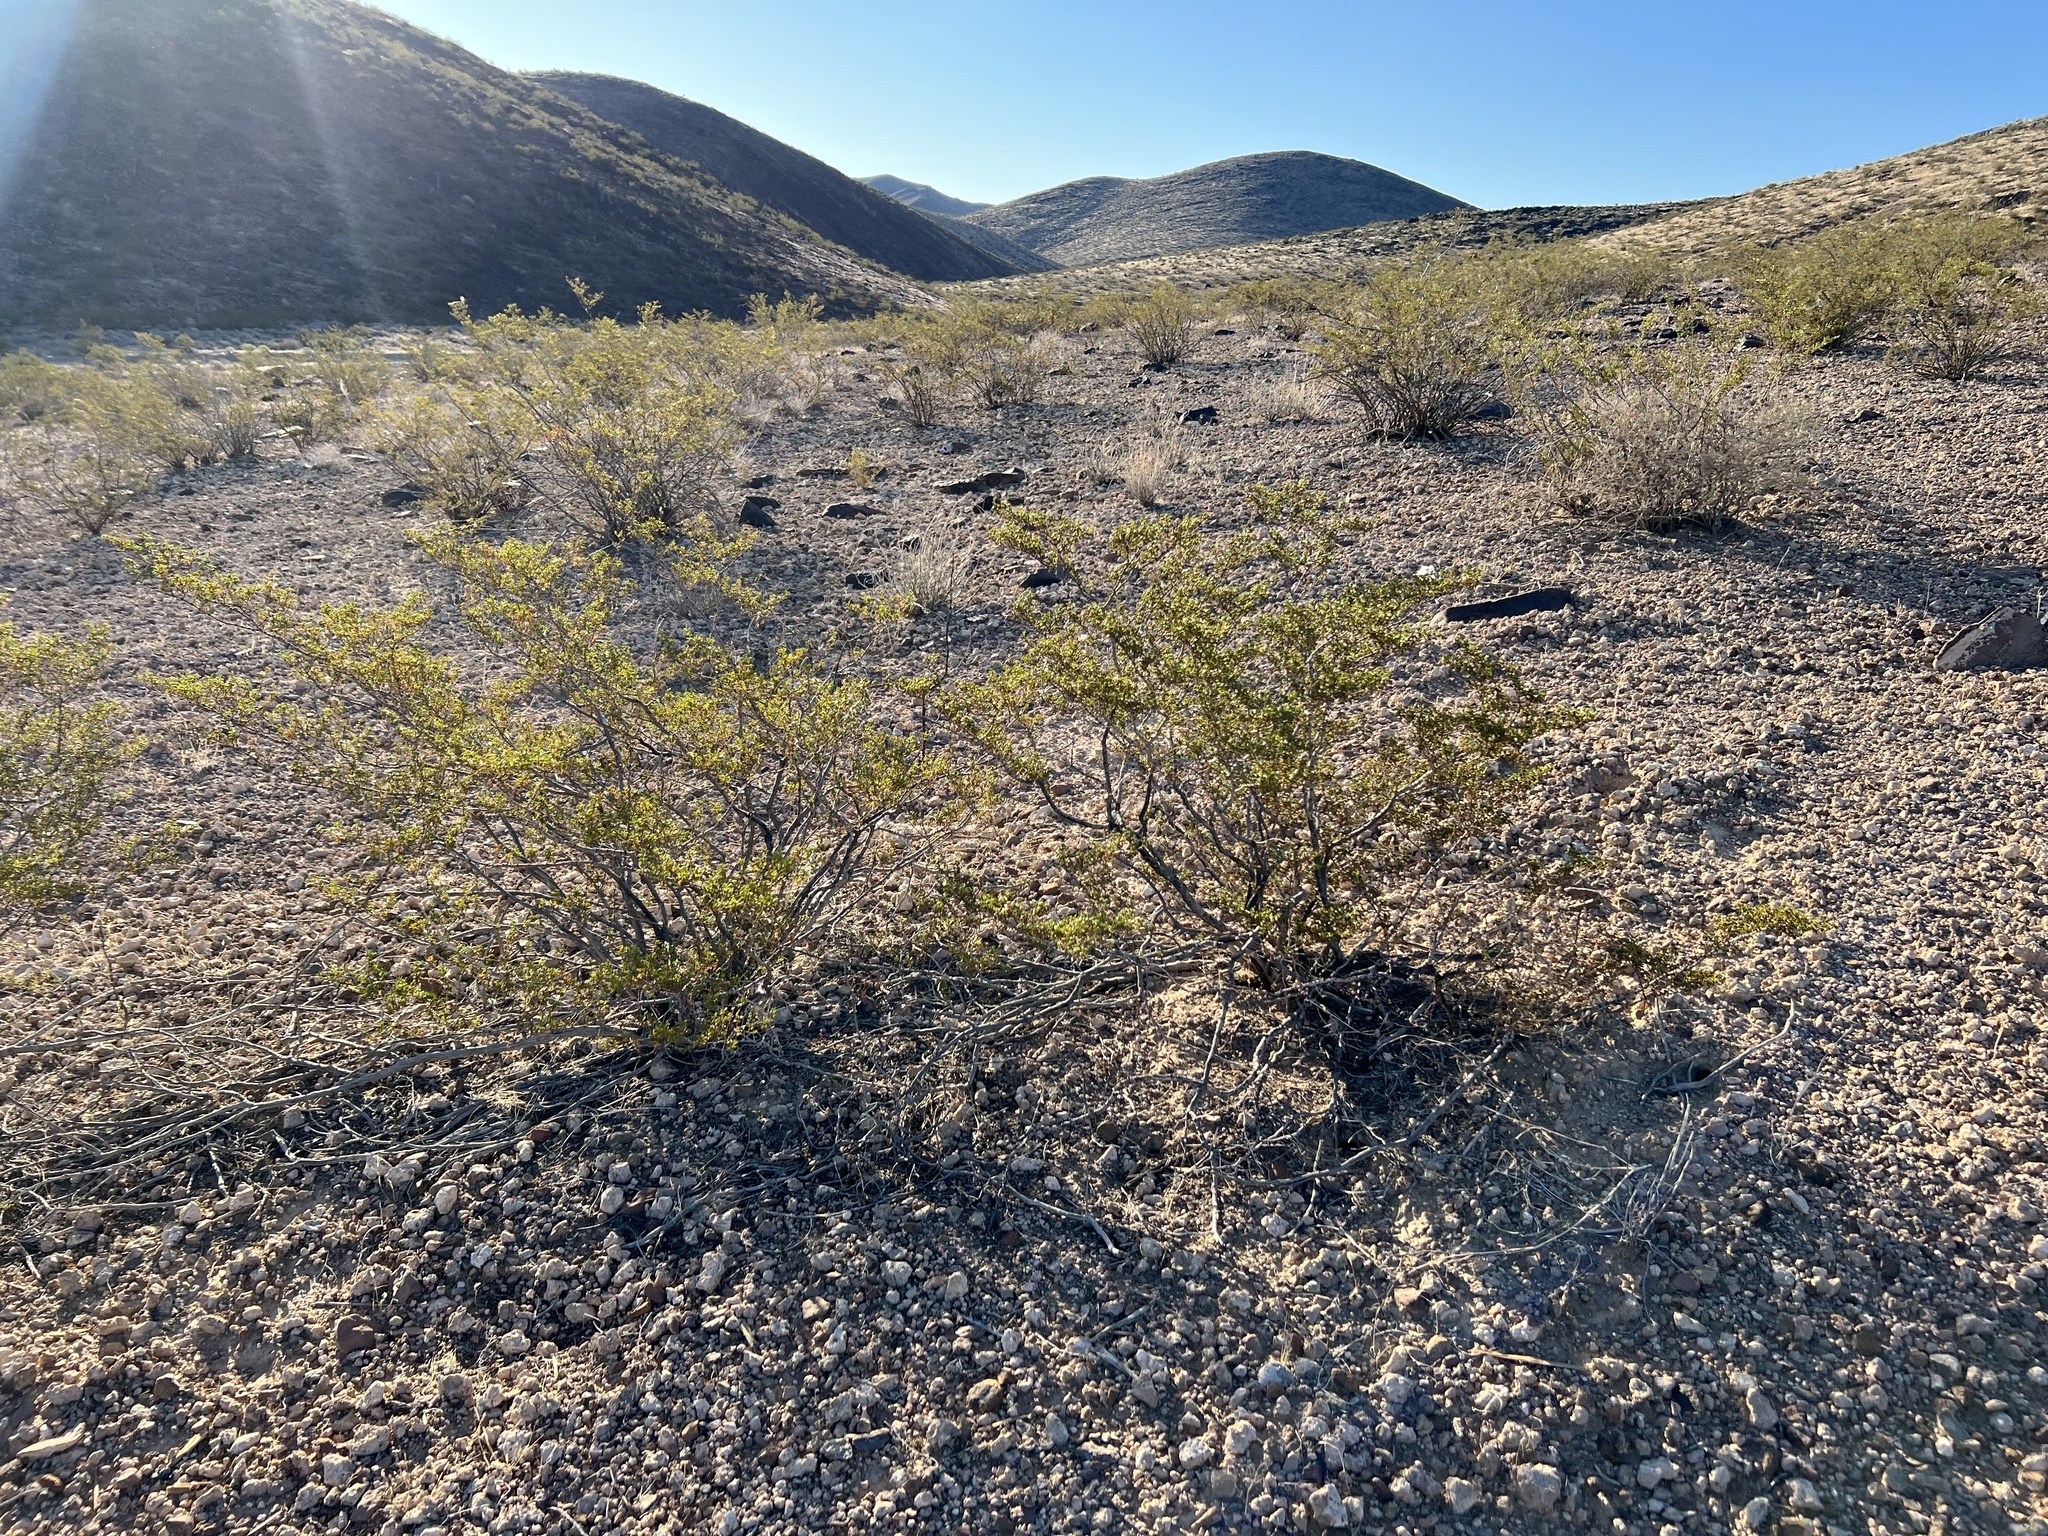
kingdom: Plantae
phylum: Tracheophyta
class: Magnoliopsida
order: Zygophyllales
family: Zygophyllaceae
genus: Larrea
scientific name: Larrea tridentata
